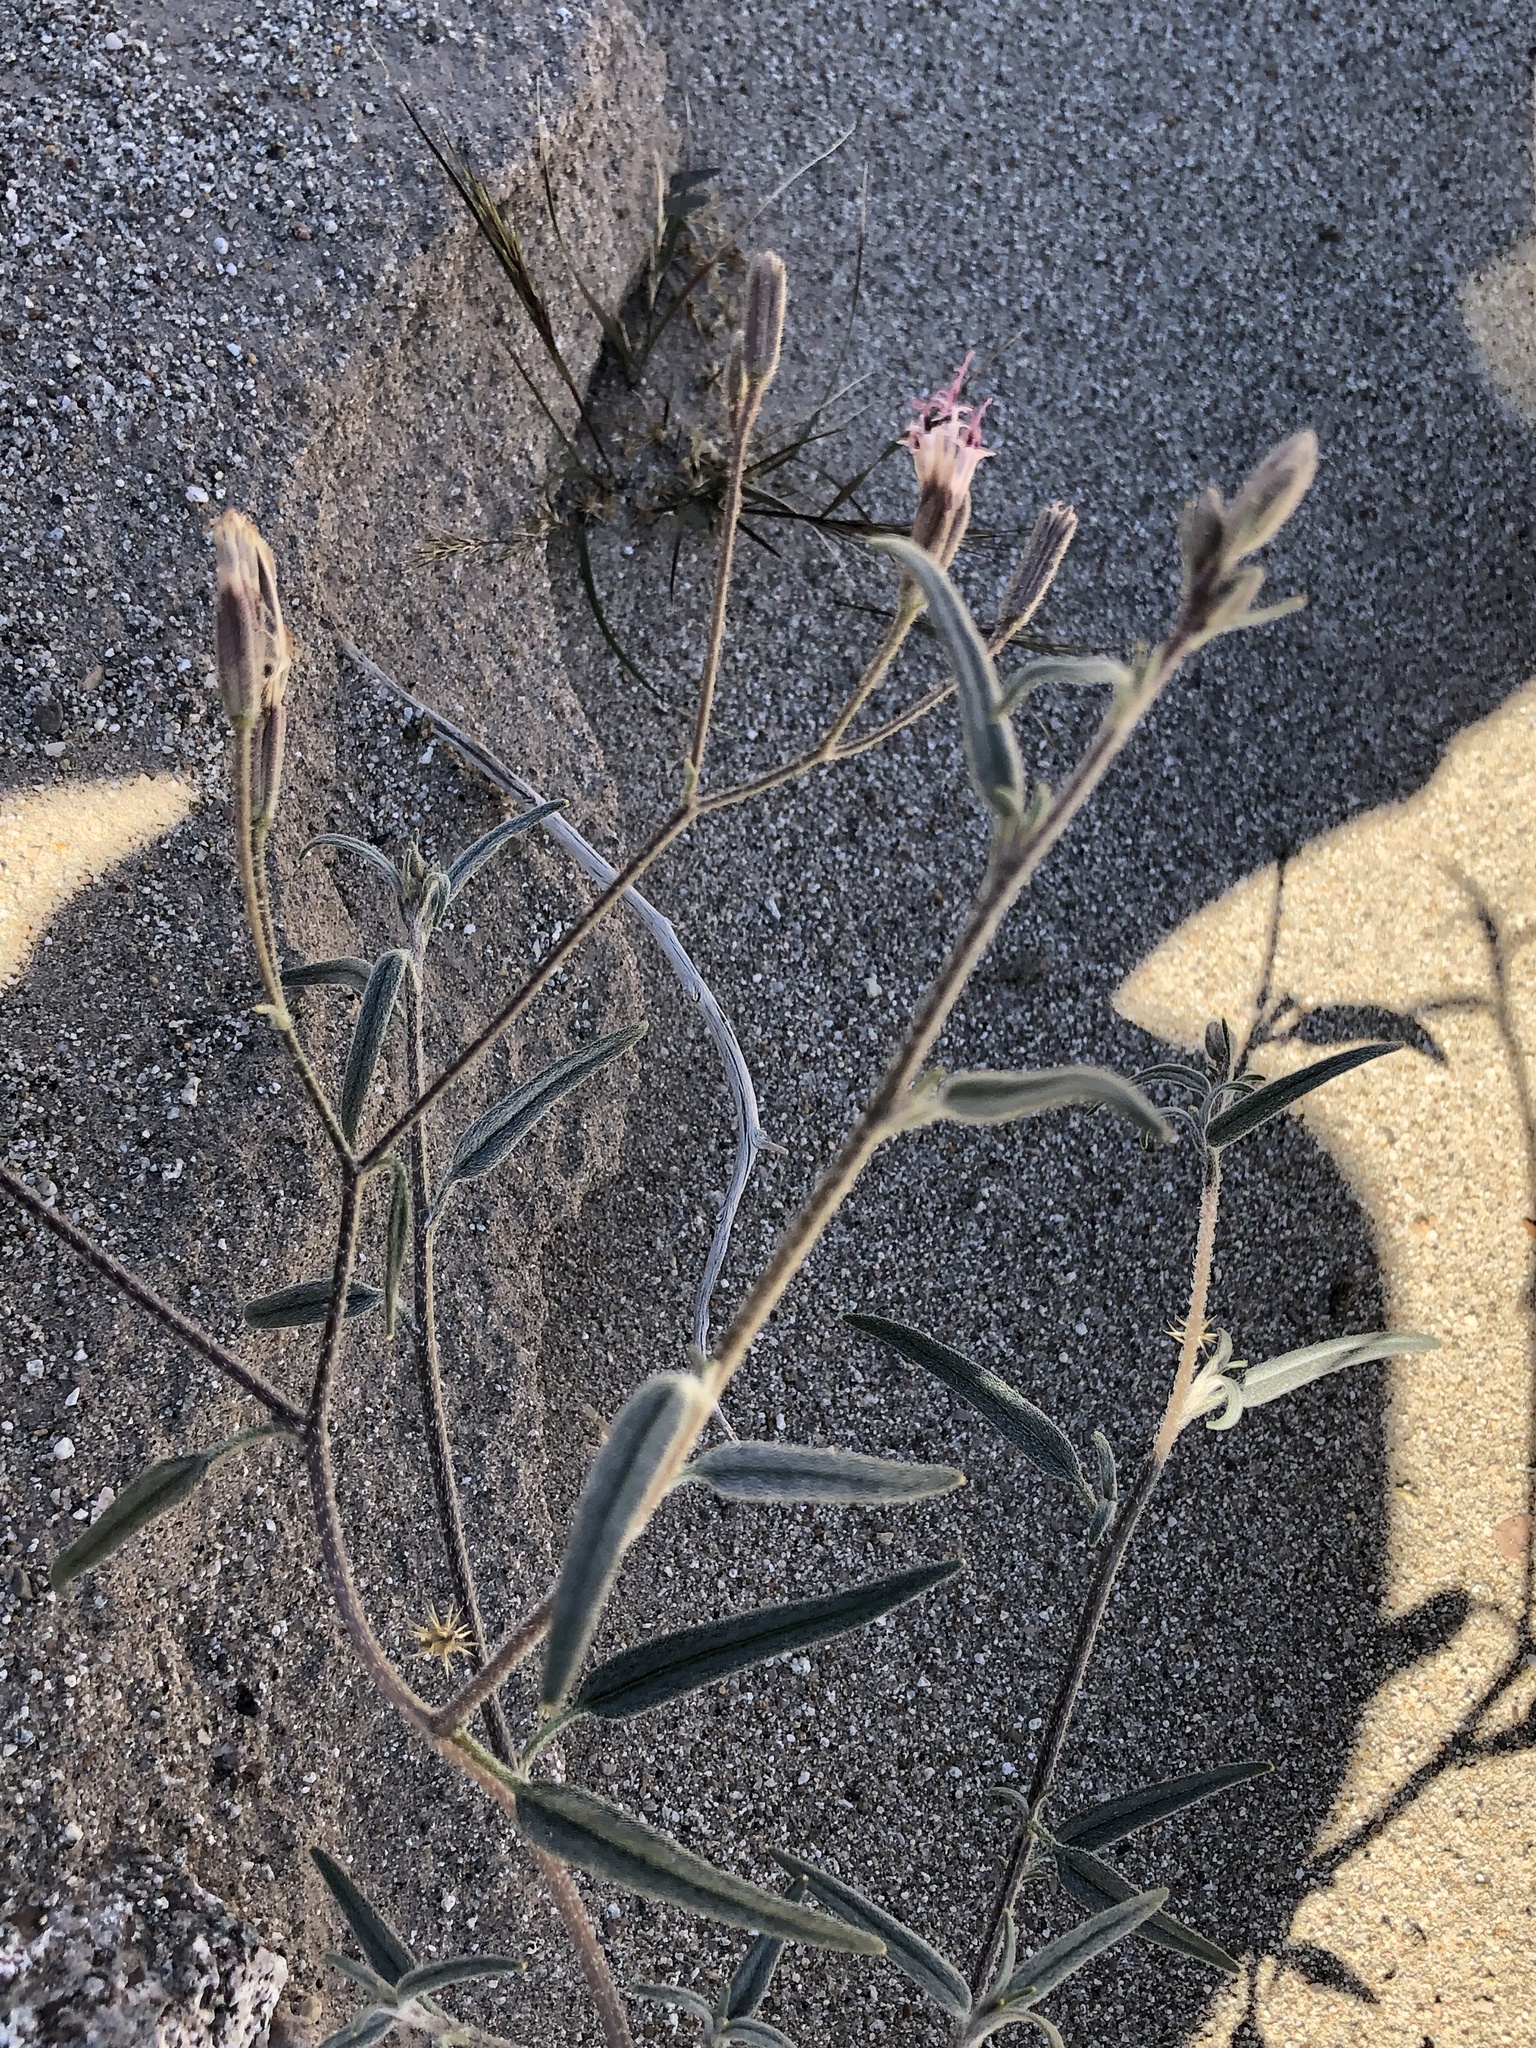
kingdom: Plantae
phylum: Tracheophyta
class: Magnoliopsida
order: Asterales
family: Asteraceae
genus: Palafoxia
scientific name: Palafoxia arida
